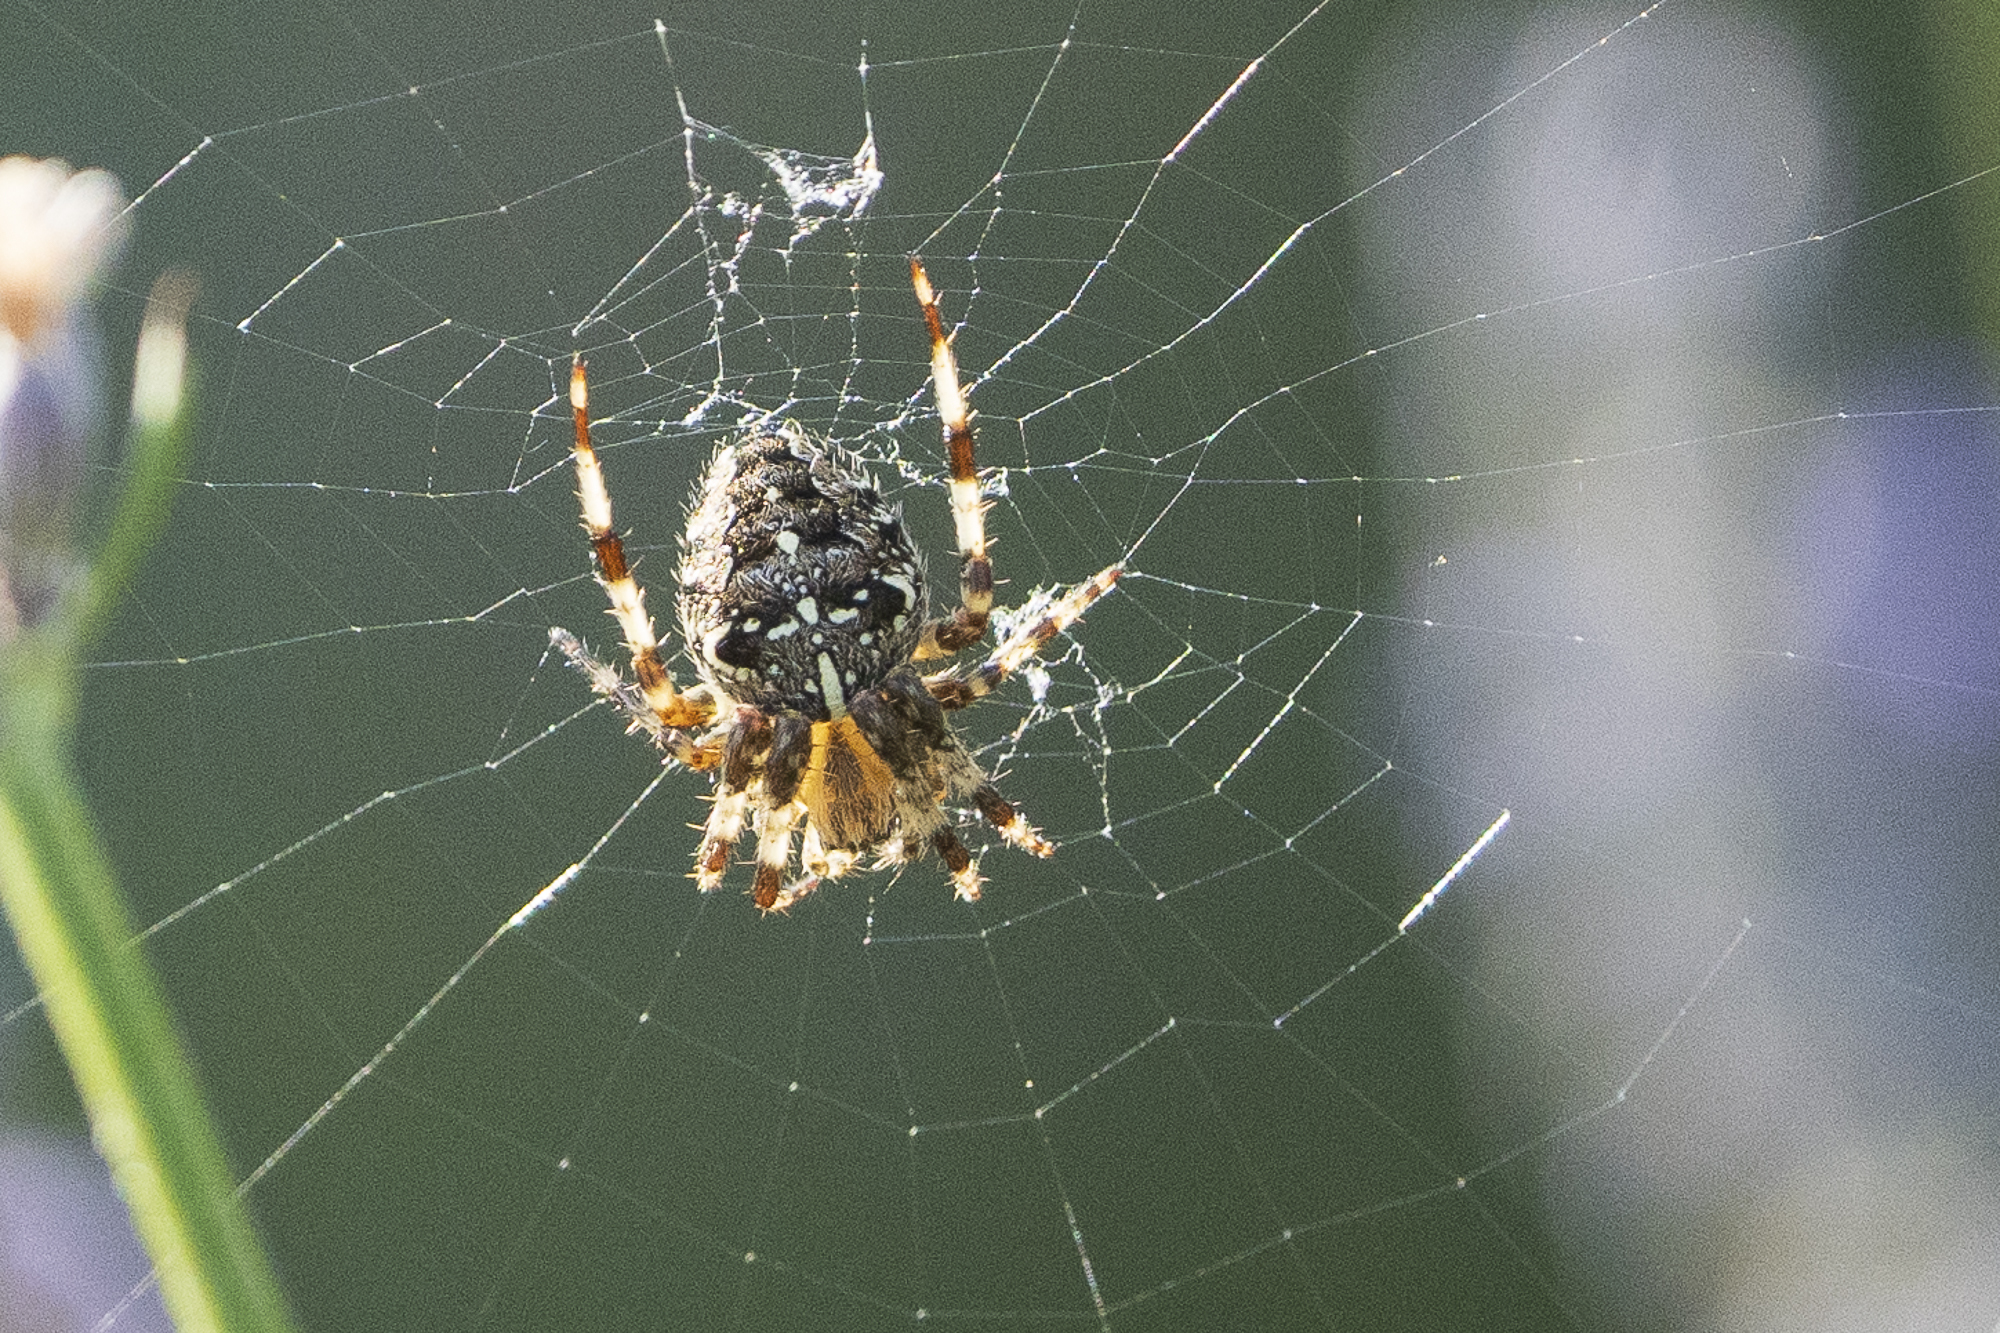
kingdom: Animalia
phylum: Arthropoda
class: Arachnida
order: Araneae
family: Araneidae
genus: Araneus
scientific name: Araneus diadematus
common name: Cross orbweaver
